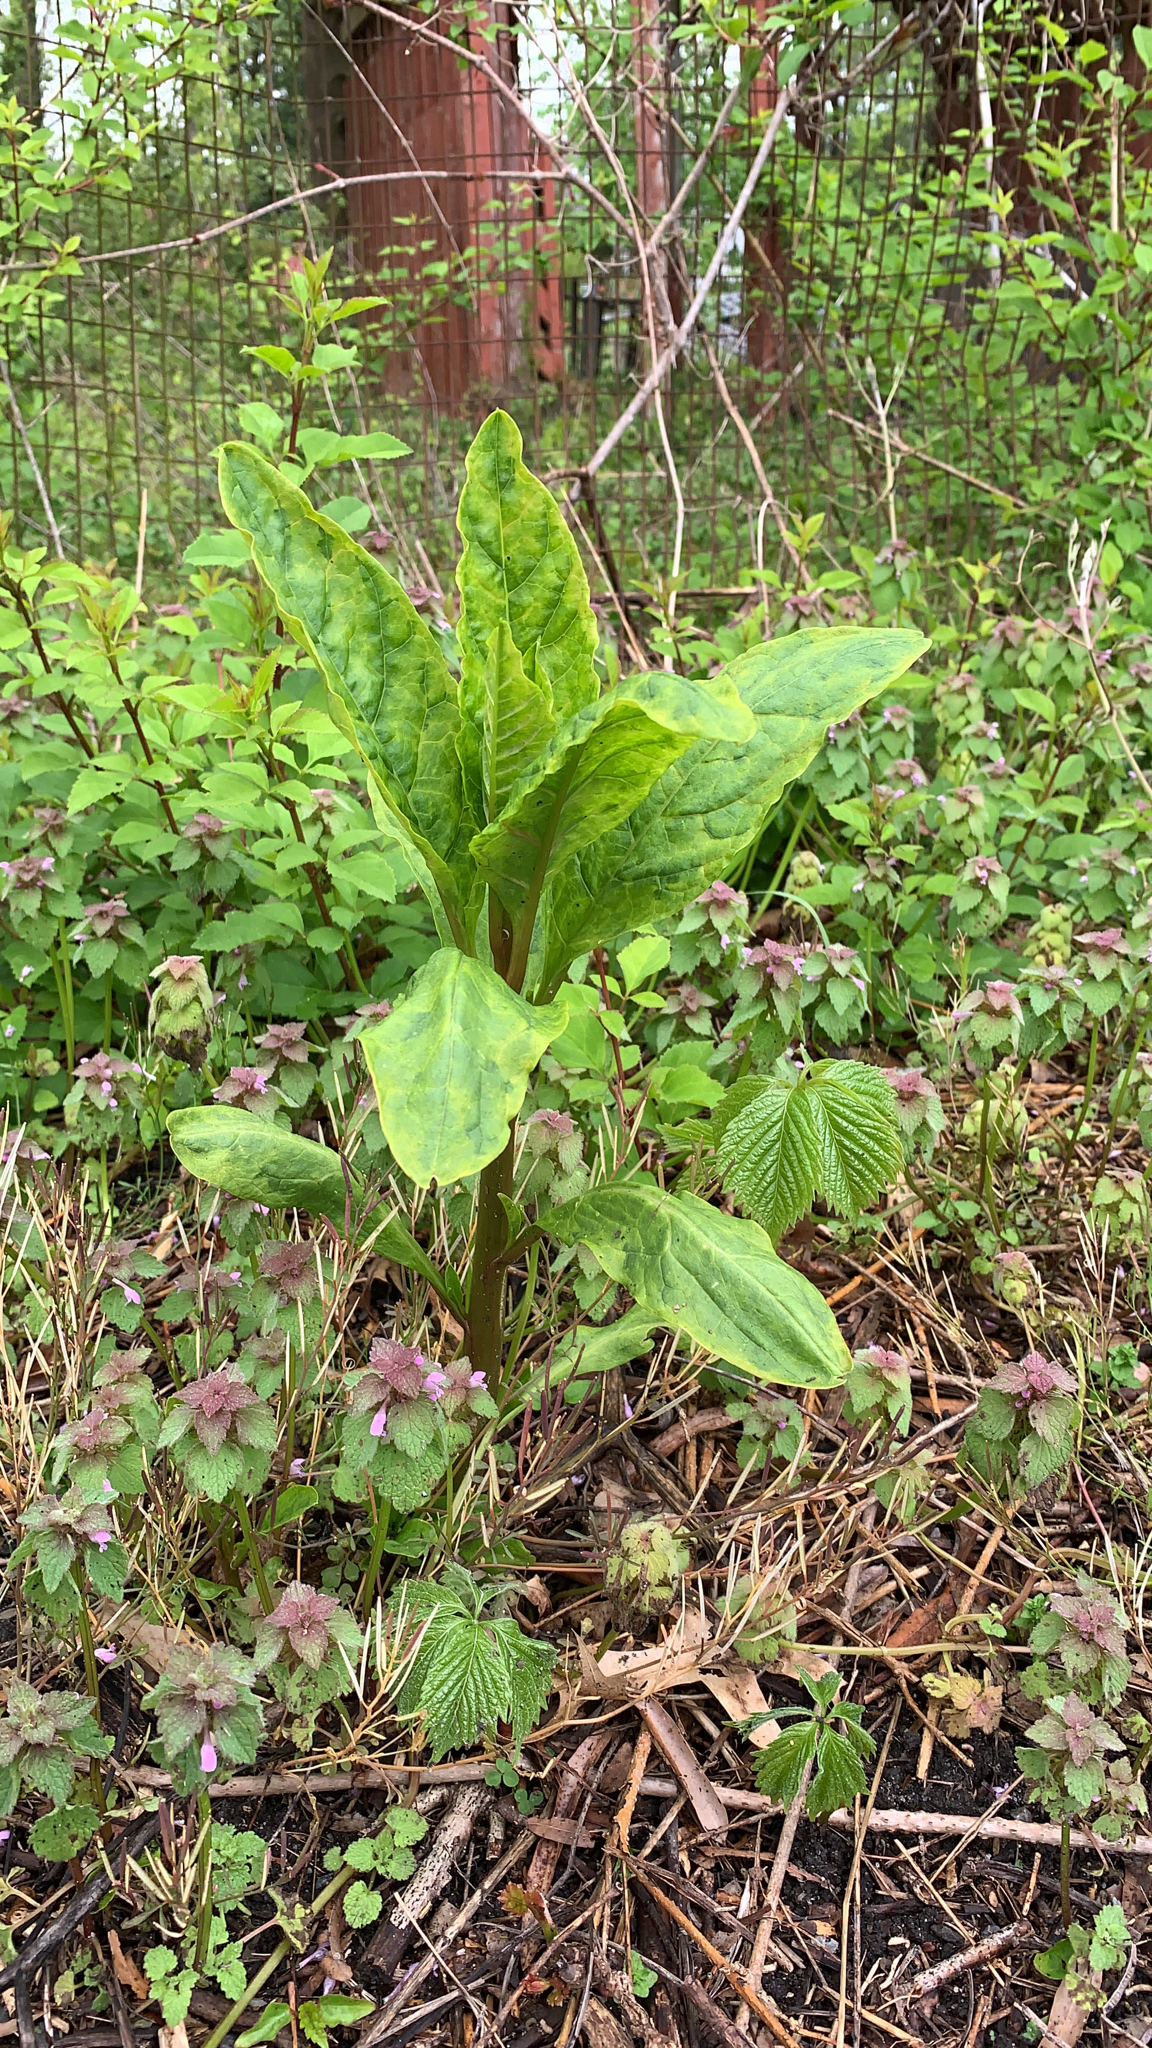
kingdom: Plantae
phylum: Tracheophyta
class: Magnoliopsida
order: Caryophyllales
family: Phytolaccaceae
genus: Phytolacca
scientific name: Phytolacca americana
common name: American pokeweed
